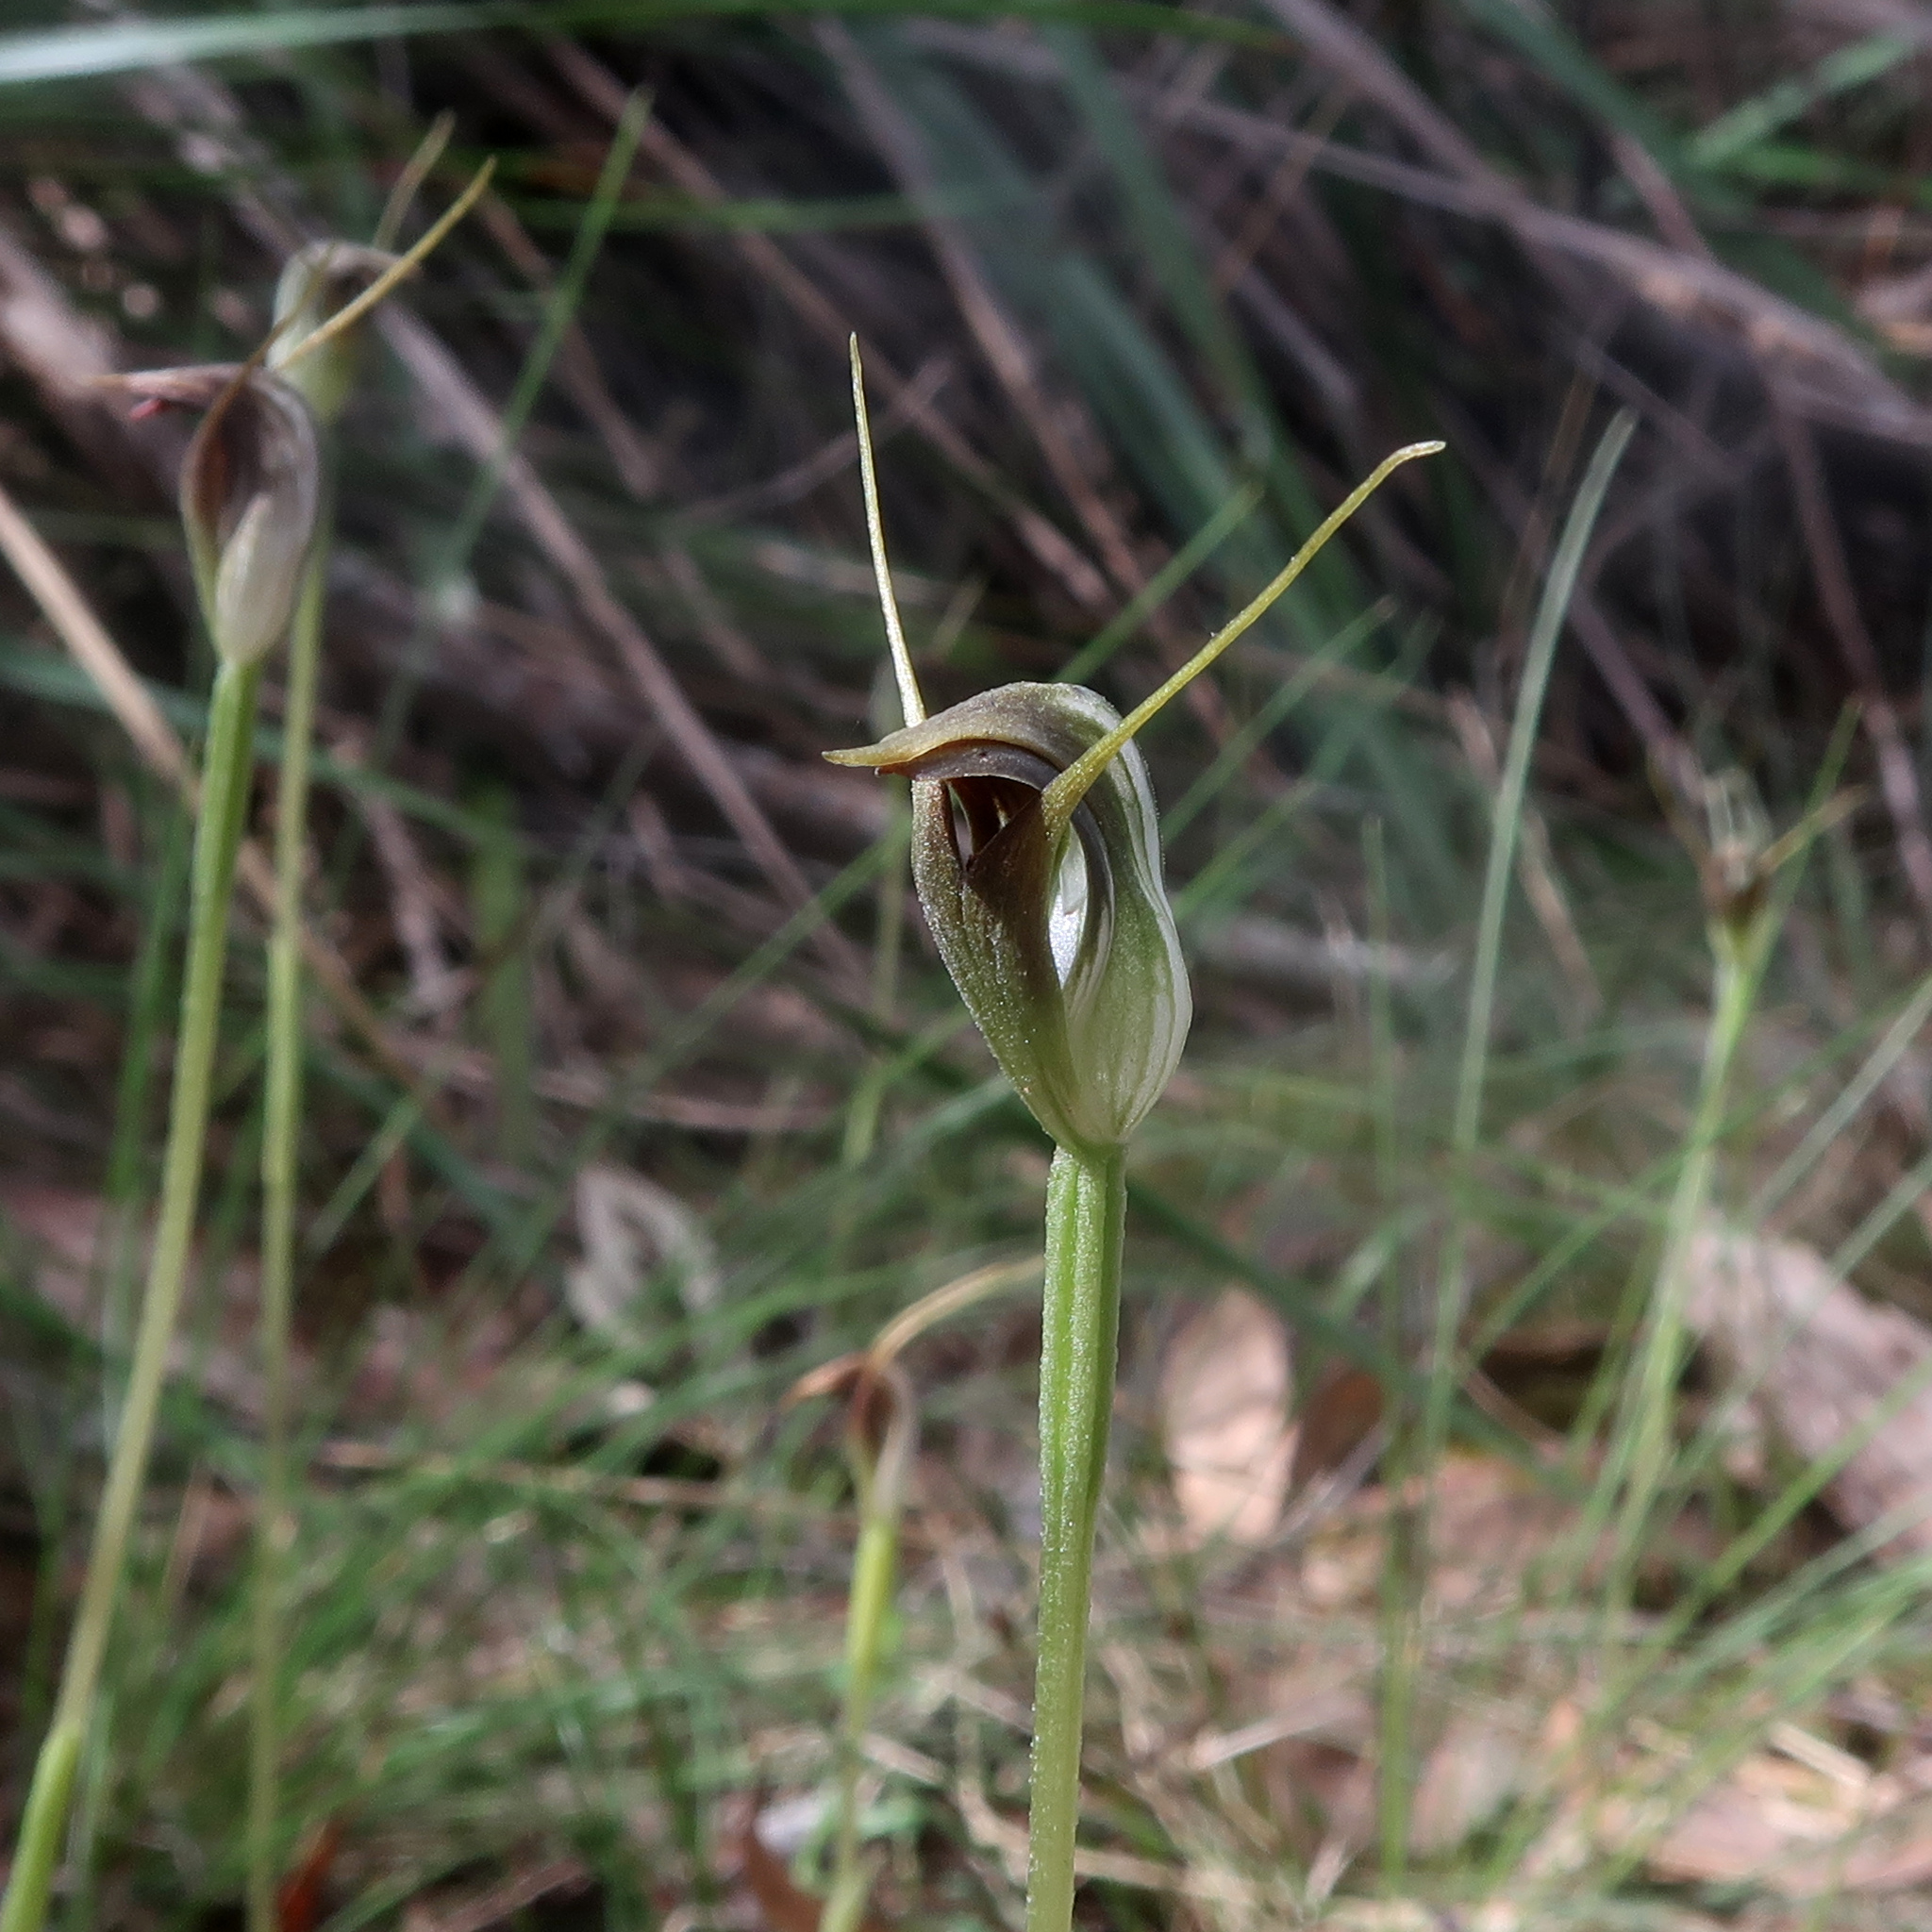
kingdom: Plantae
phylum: Tracheophyta
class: Liliopsida
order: Asparagales
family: Orchidaceae
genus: Pterostylis
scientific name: Pterostylis pedunculata
